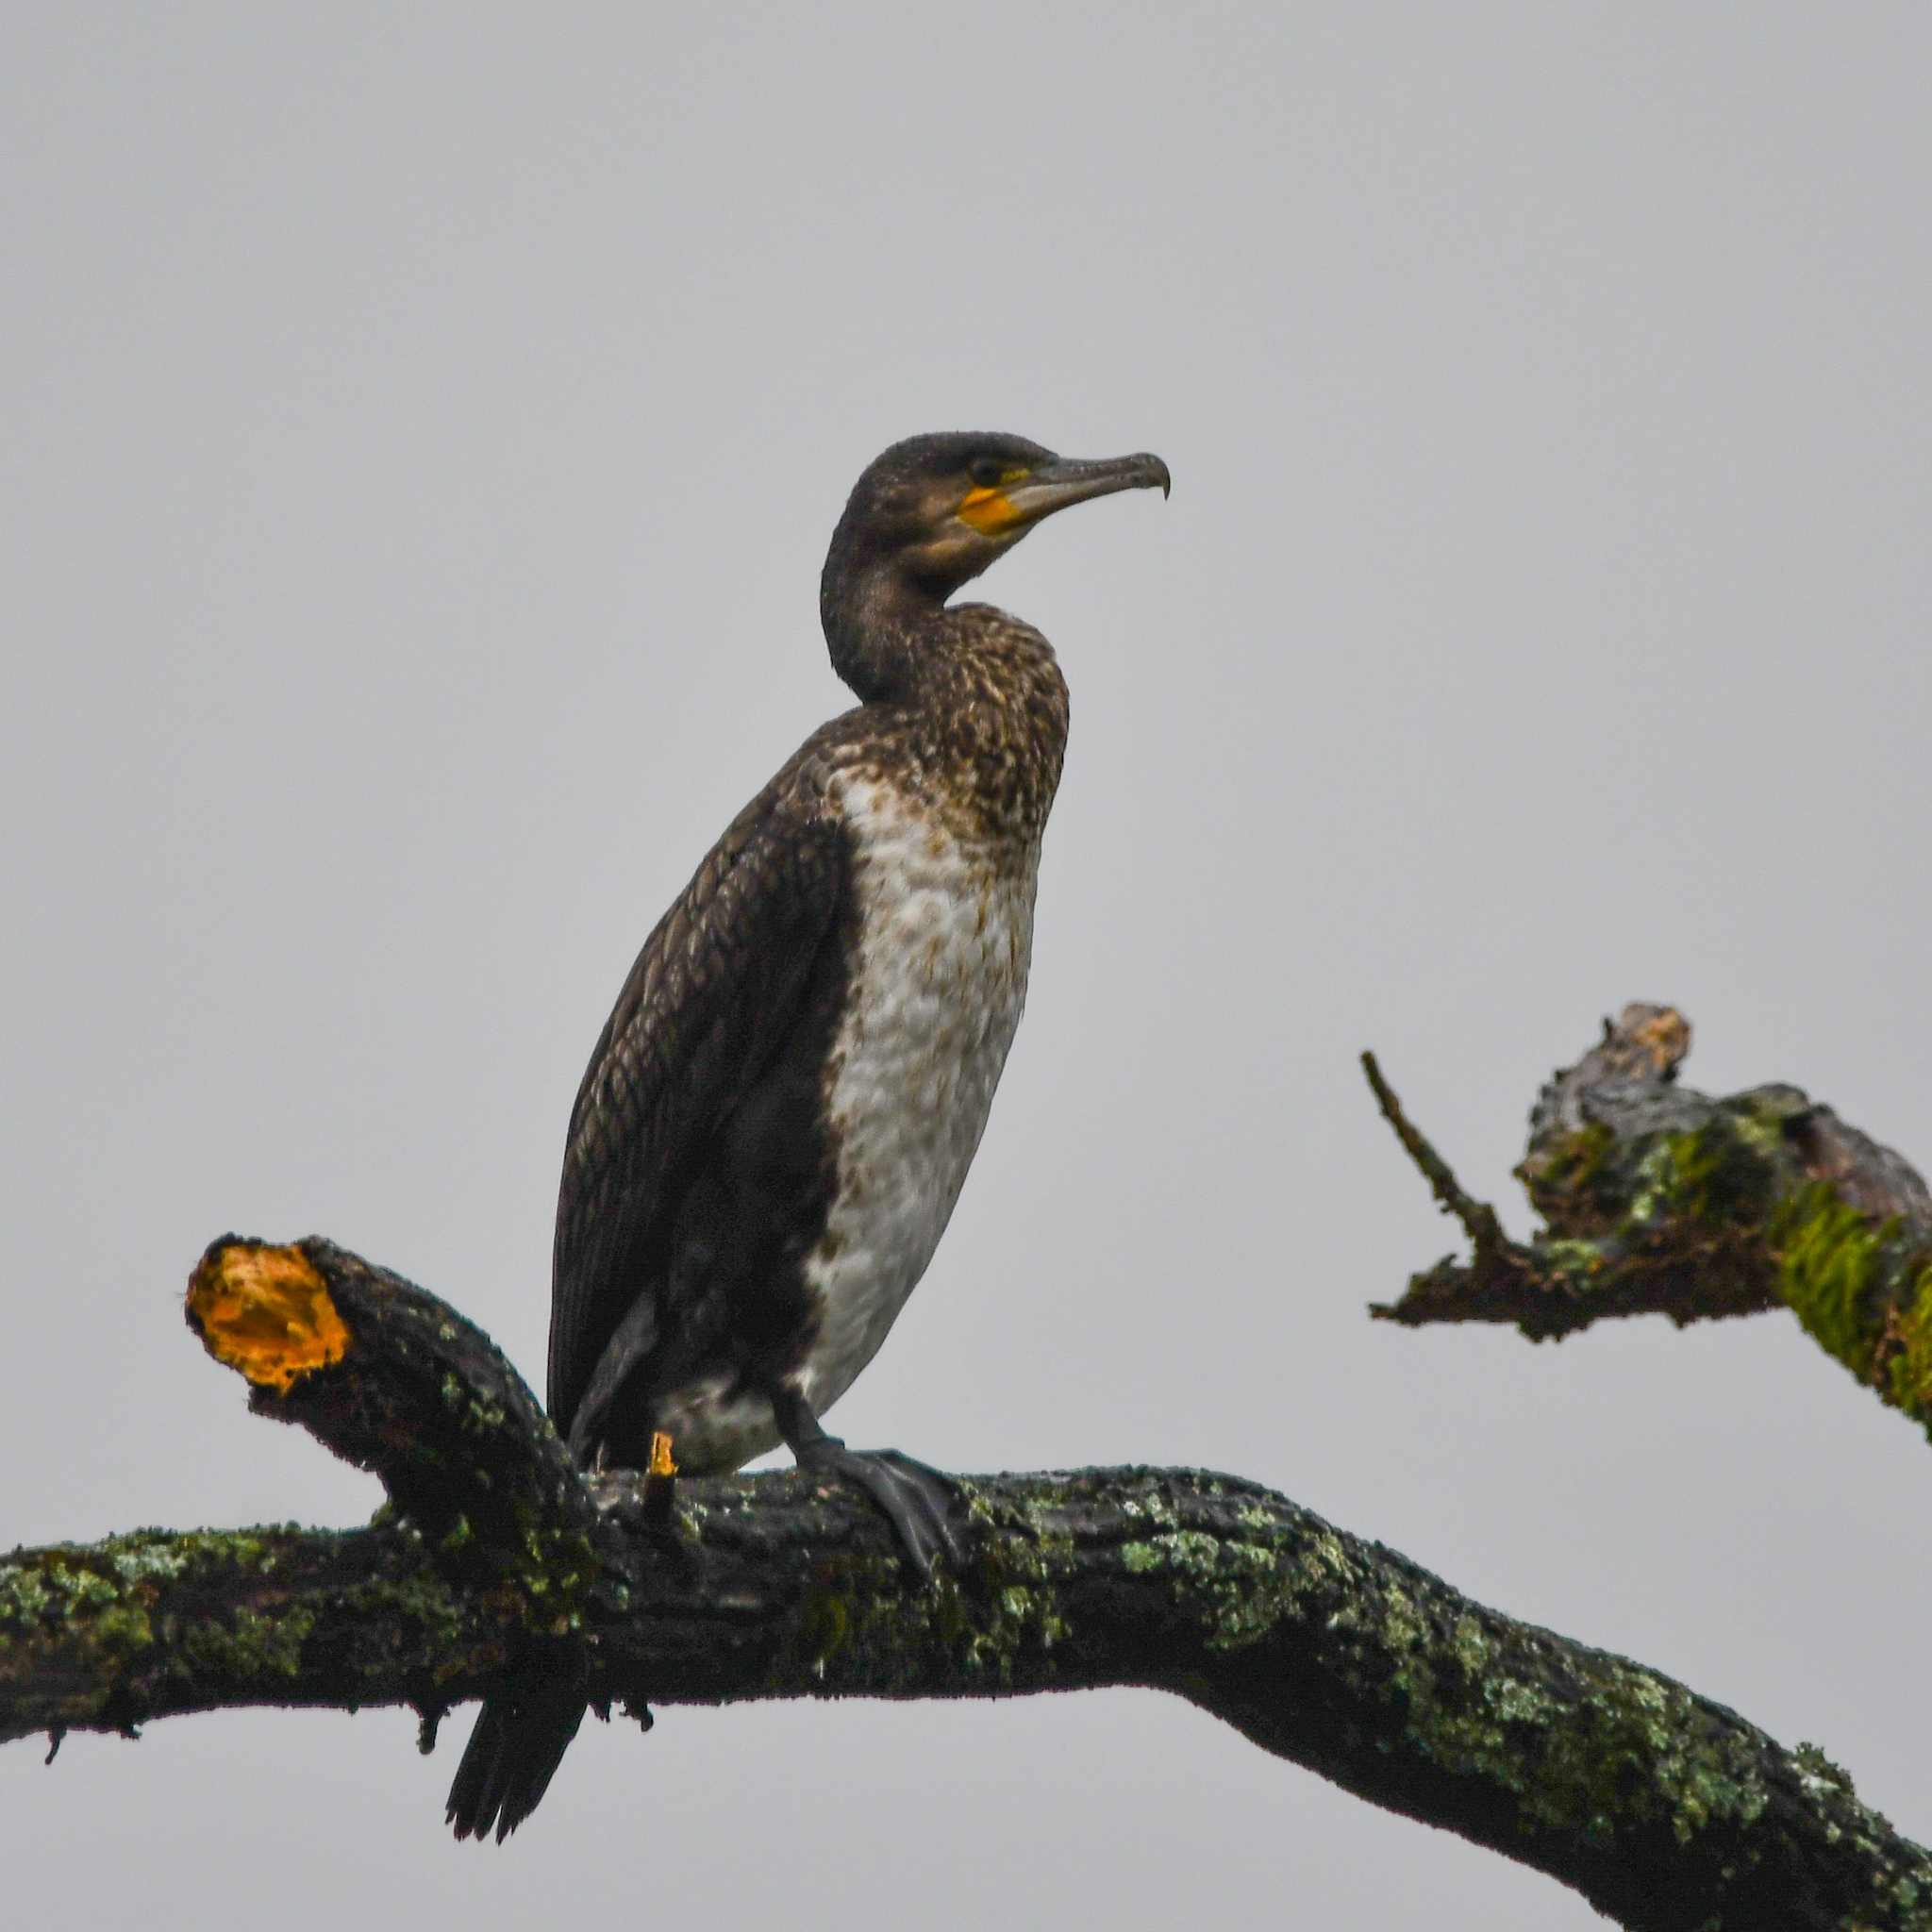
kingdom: Animalia
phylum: Chordata
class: Aves
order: Suliformes
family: Phalacrocoracidae
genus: Phalacrocorax
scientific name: Phalacrocorax carbo
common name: Great cormorant
